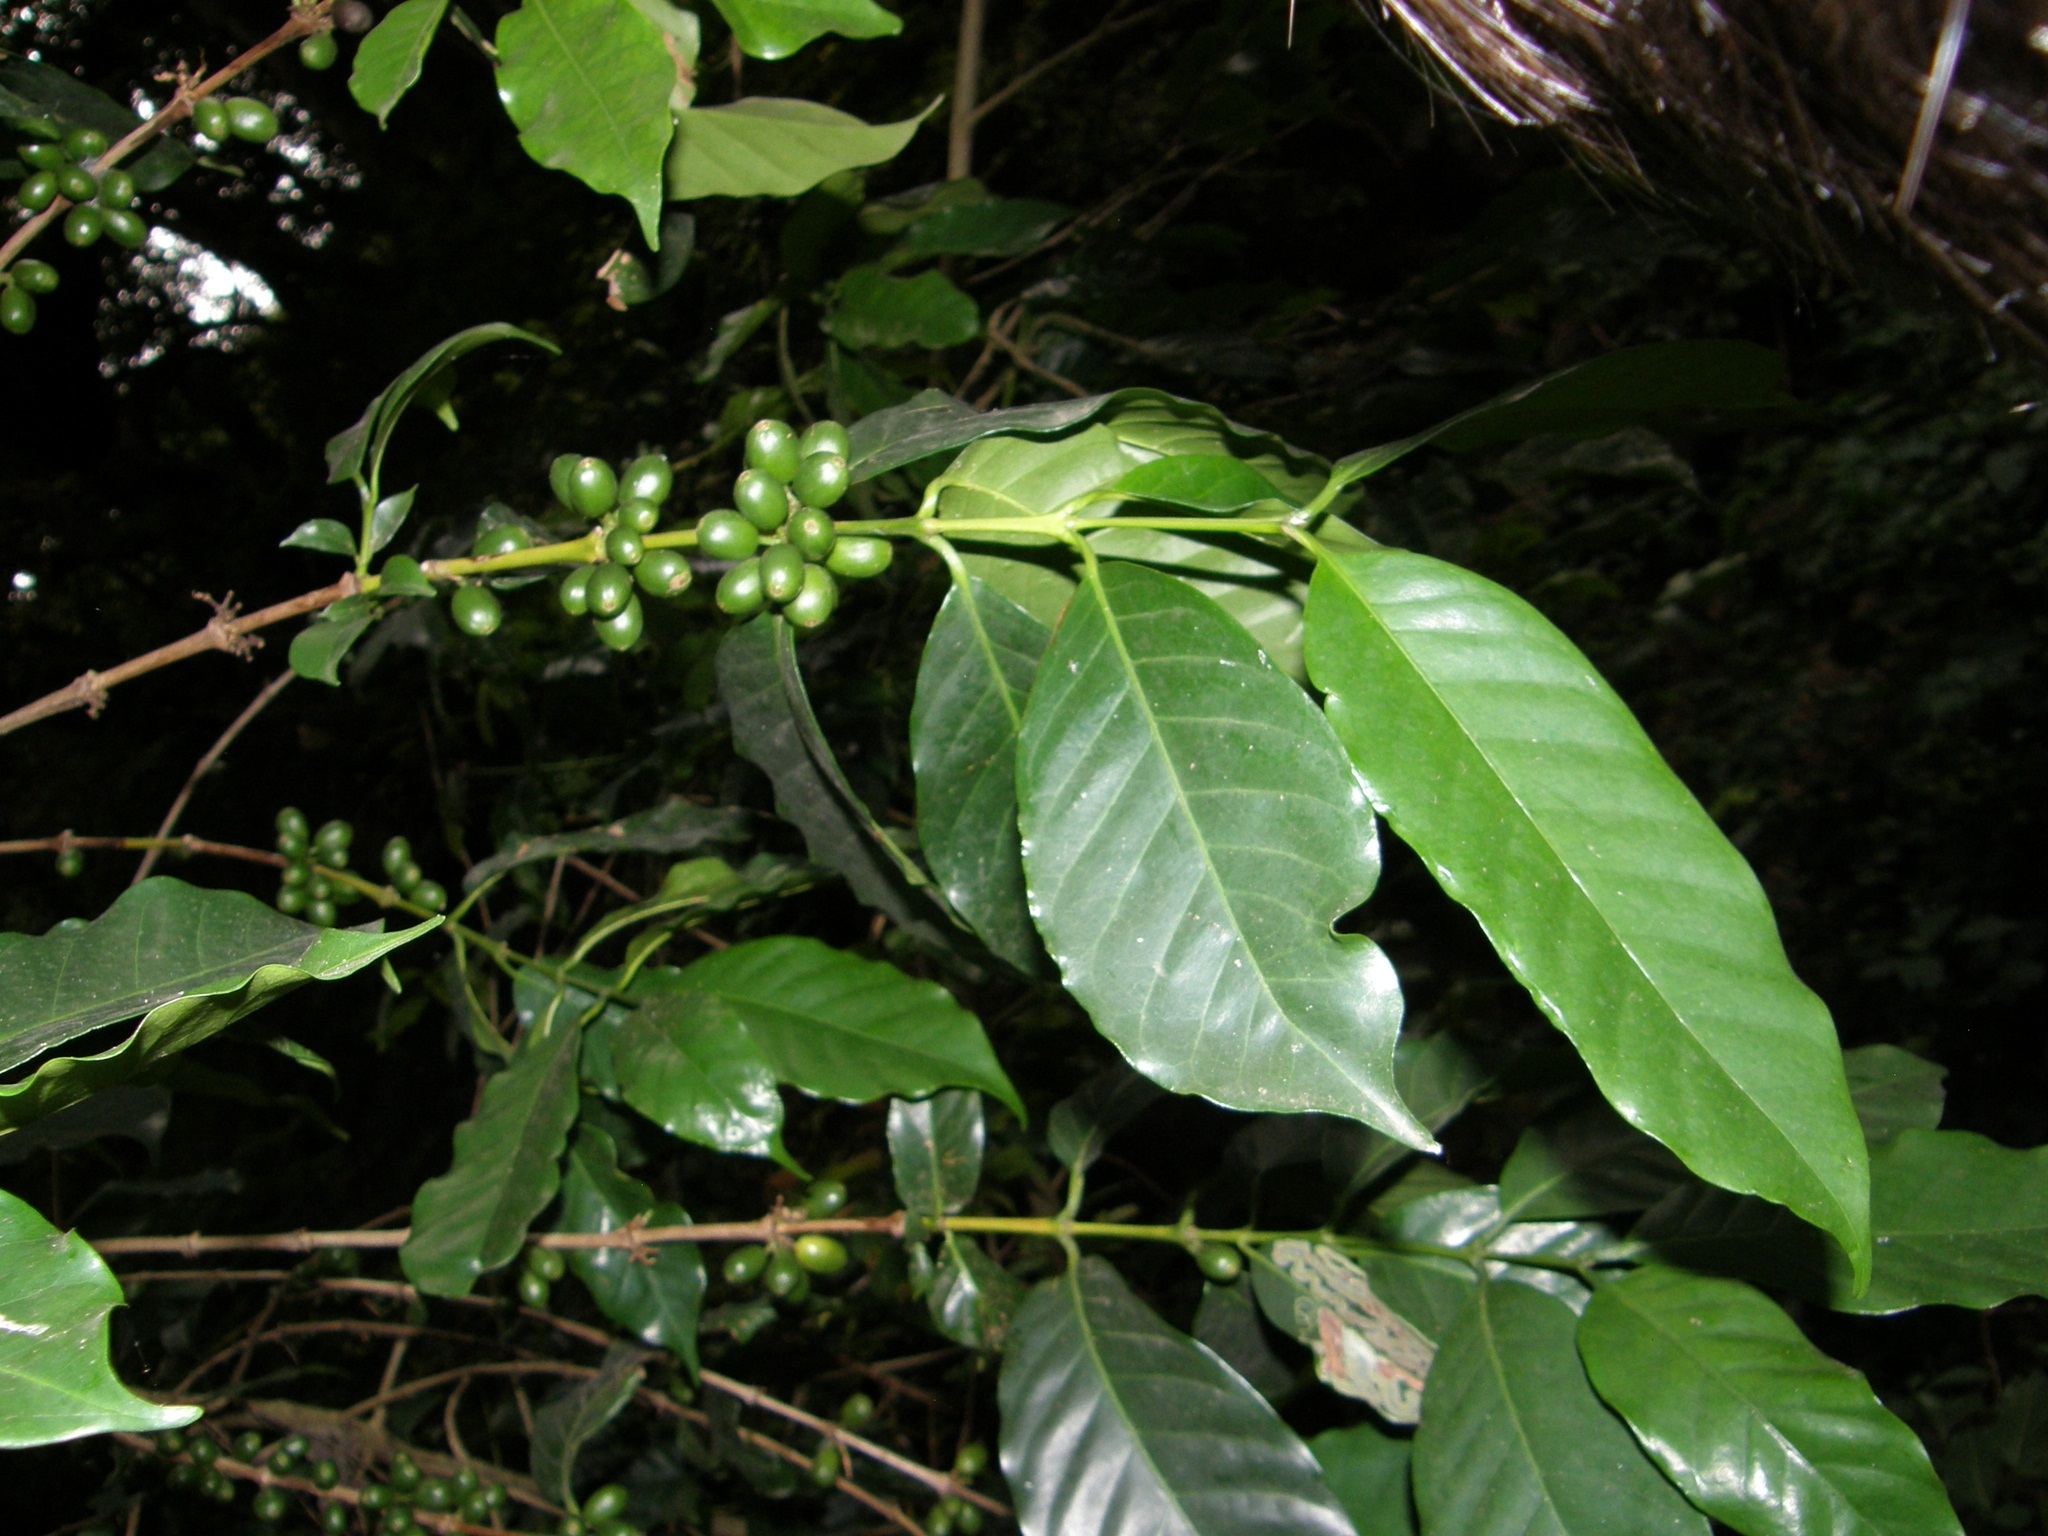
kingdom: Plantae
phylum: Tracheophyta
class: Magnoliopsida
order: Gentianales
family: Rubiaceae
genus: Coffea
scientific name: Coffea arabica
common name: Coffee
